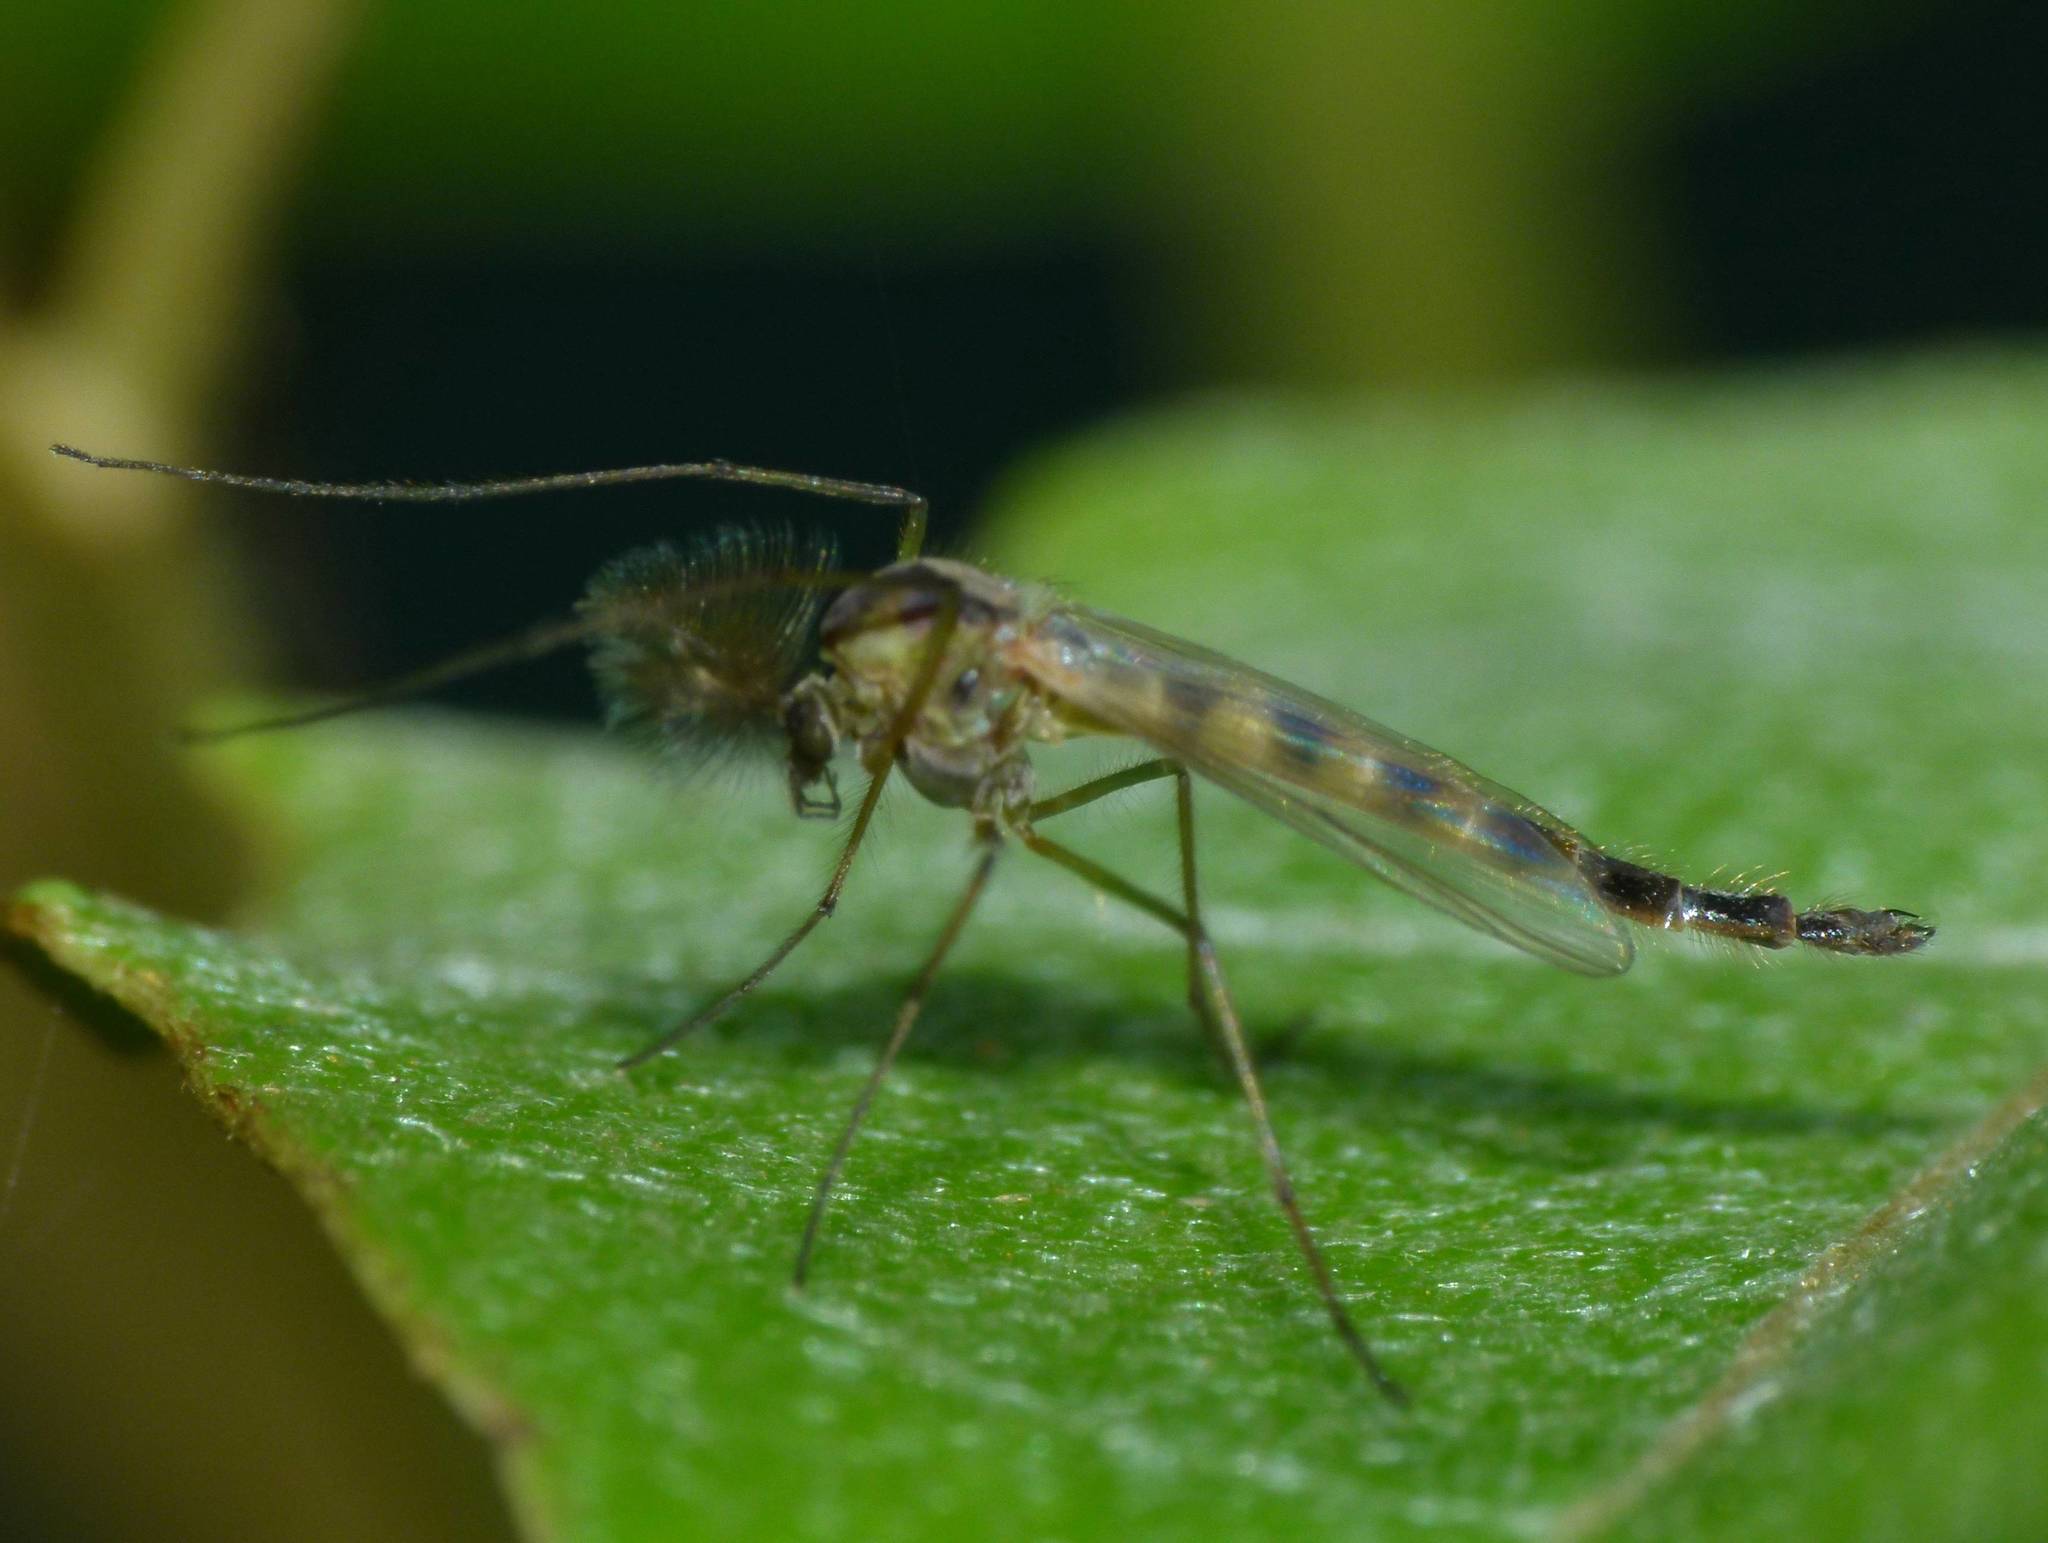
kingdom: Animalia
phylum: Arthropoda
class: Insecta
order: Diptera
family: Chironomidae
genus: Chironomus
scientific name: Chironomus zealandicus
